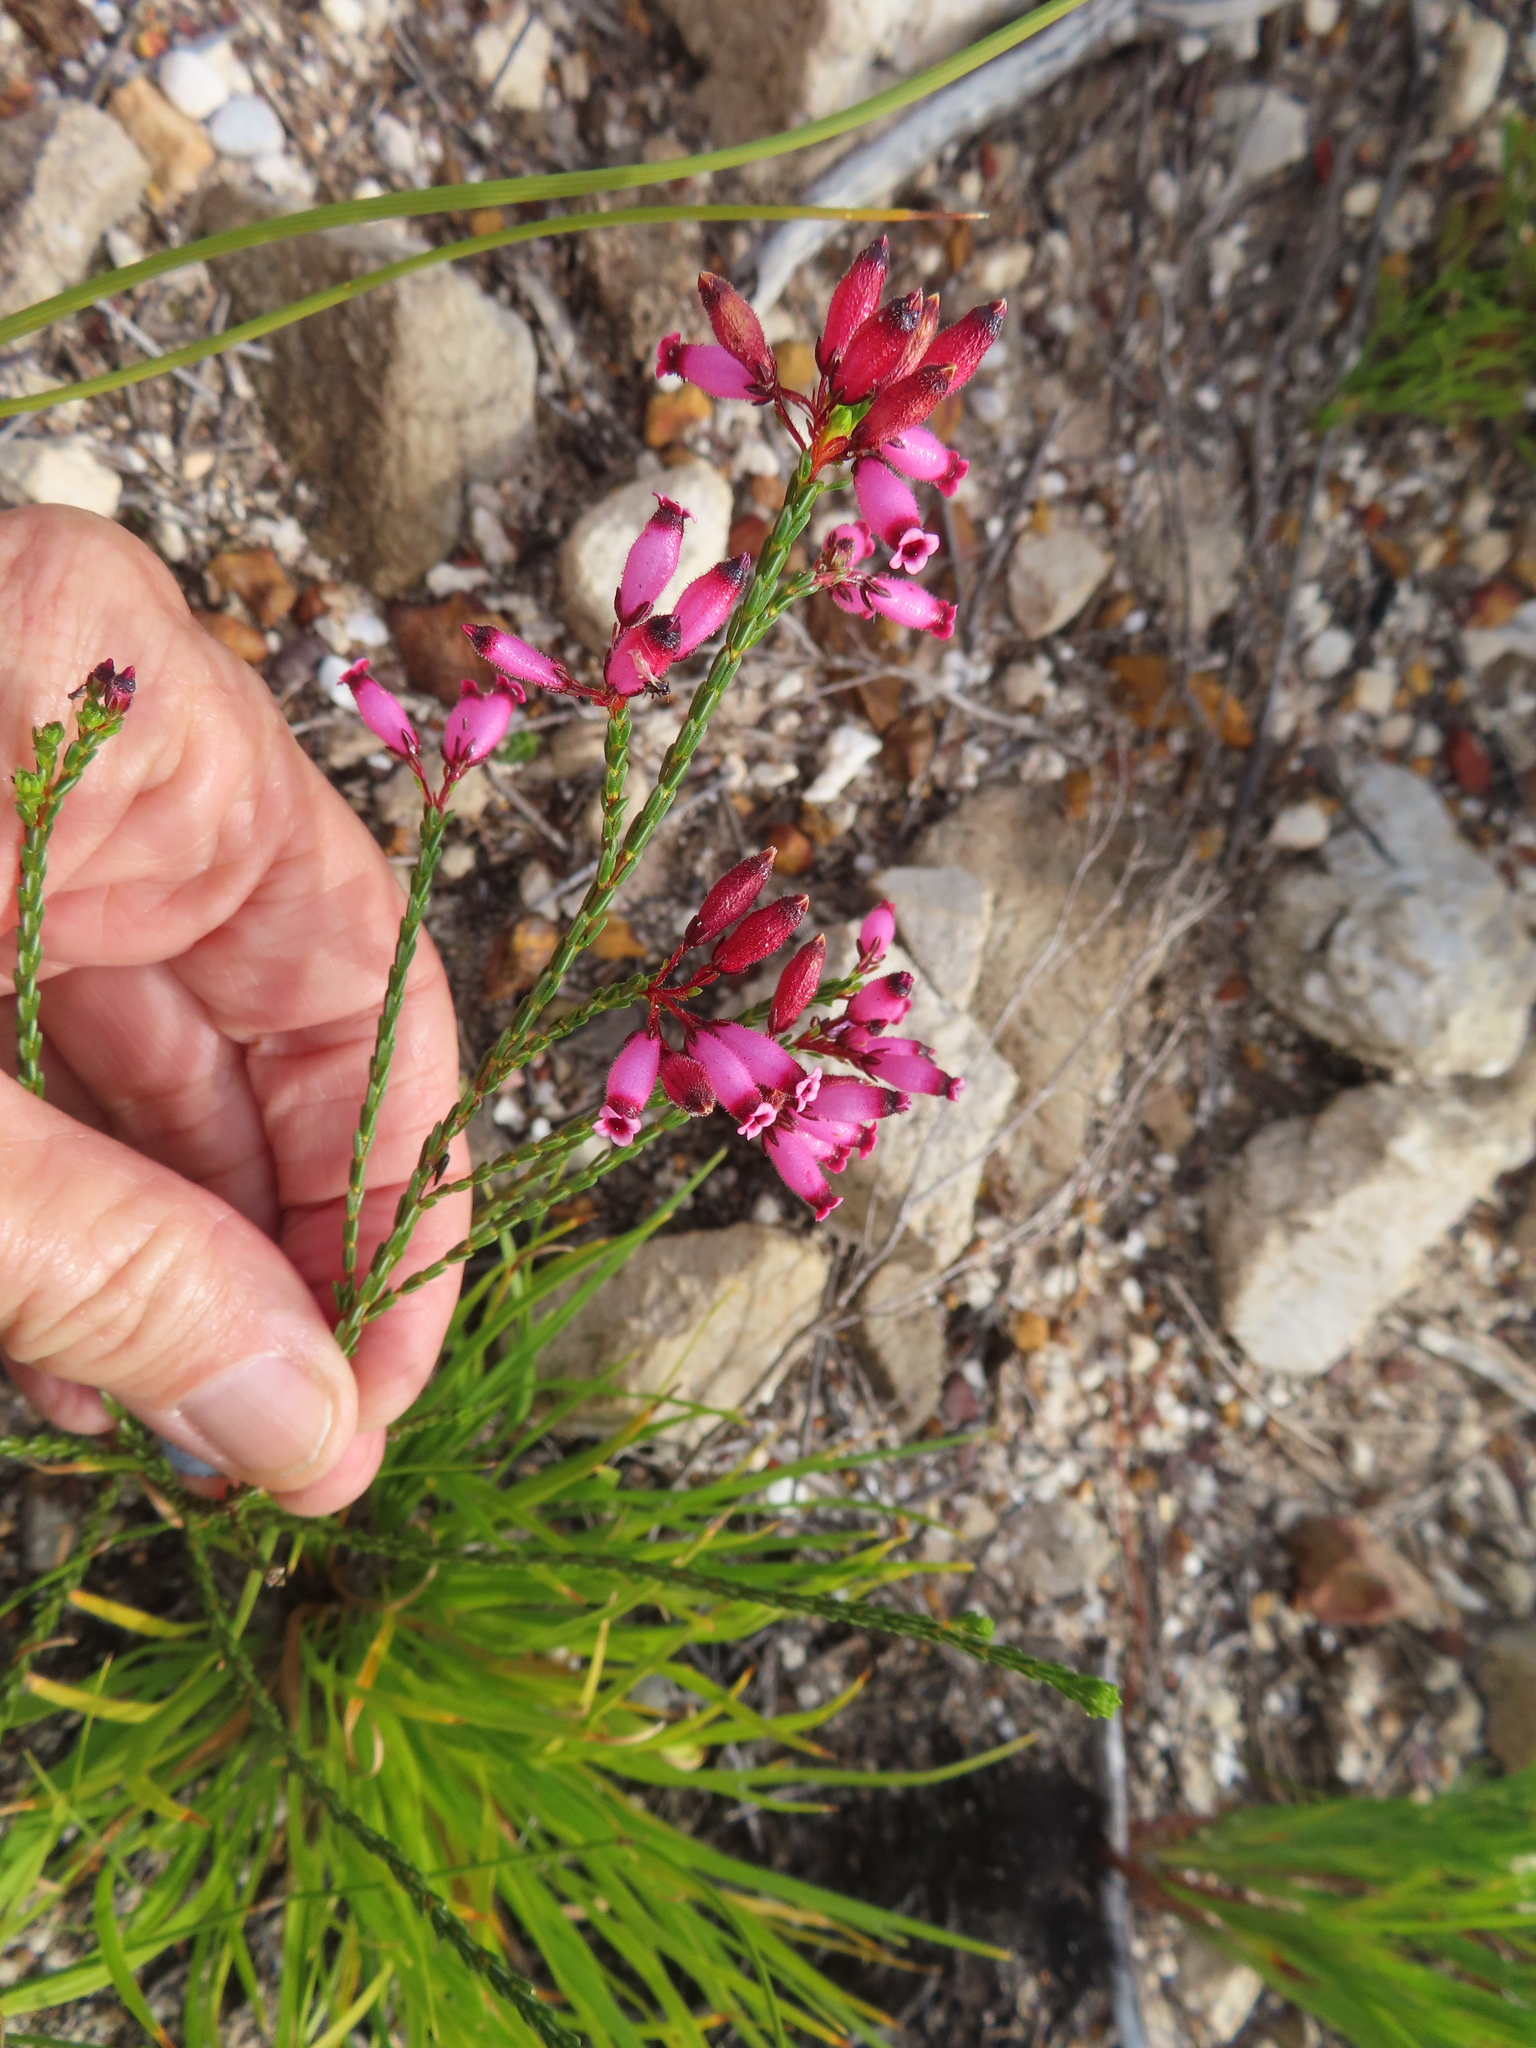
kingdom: Plantae
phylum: Tracheophyta
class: Magnoliopsida
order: Ericales
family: Ericaceae
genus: Erica
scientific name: Erica cristata
